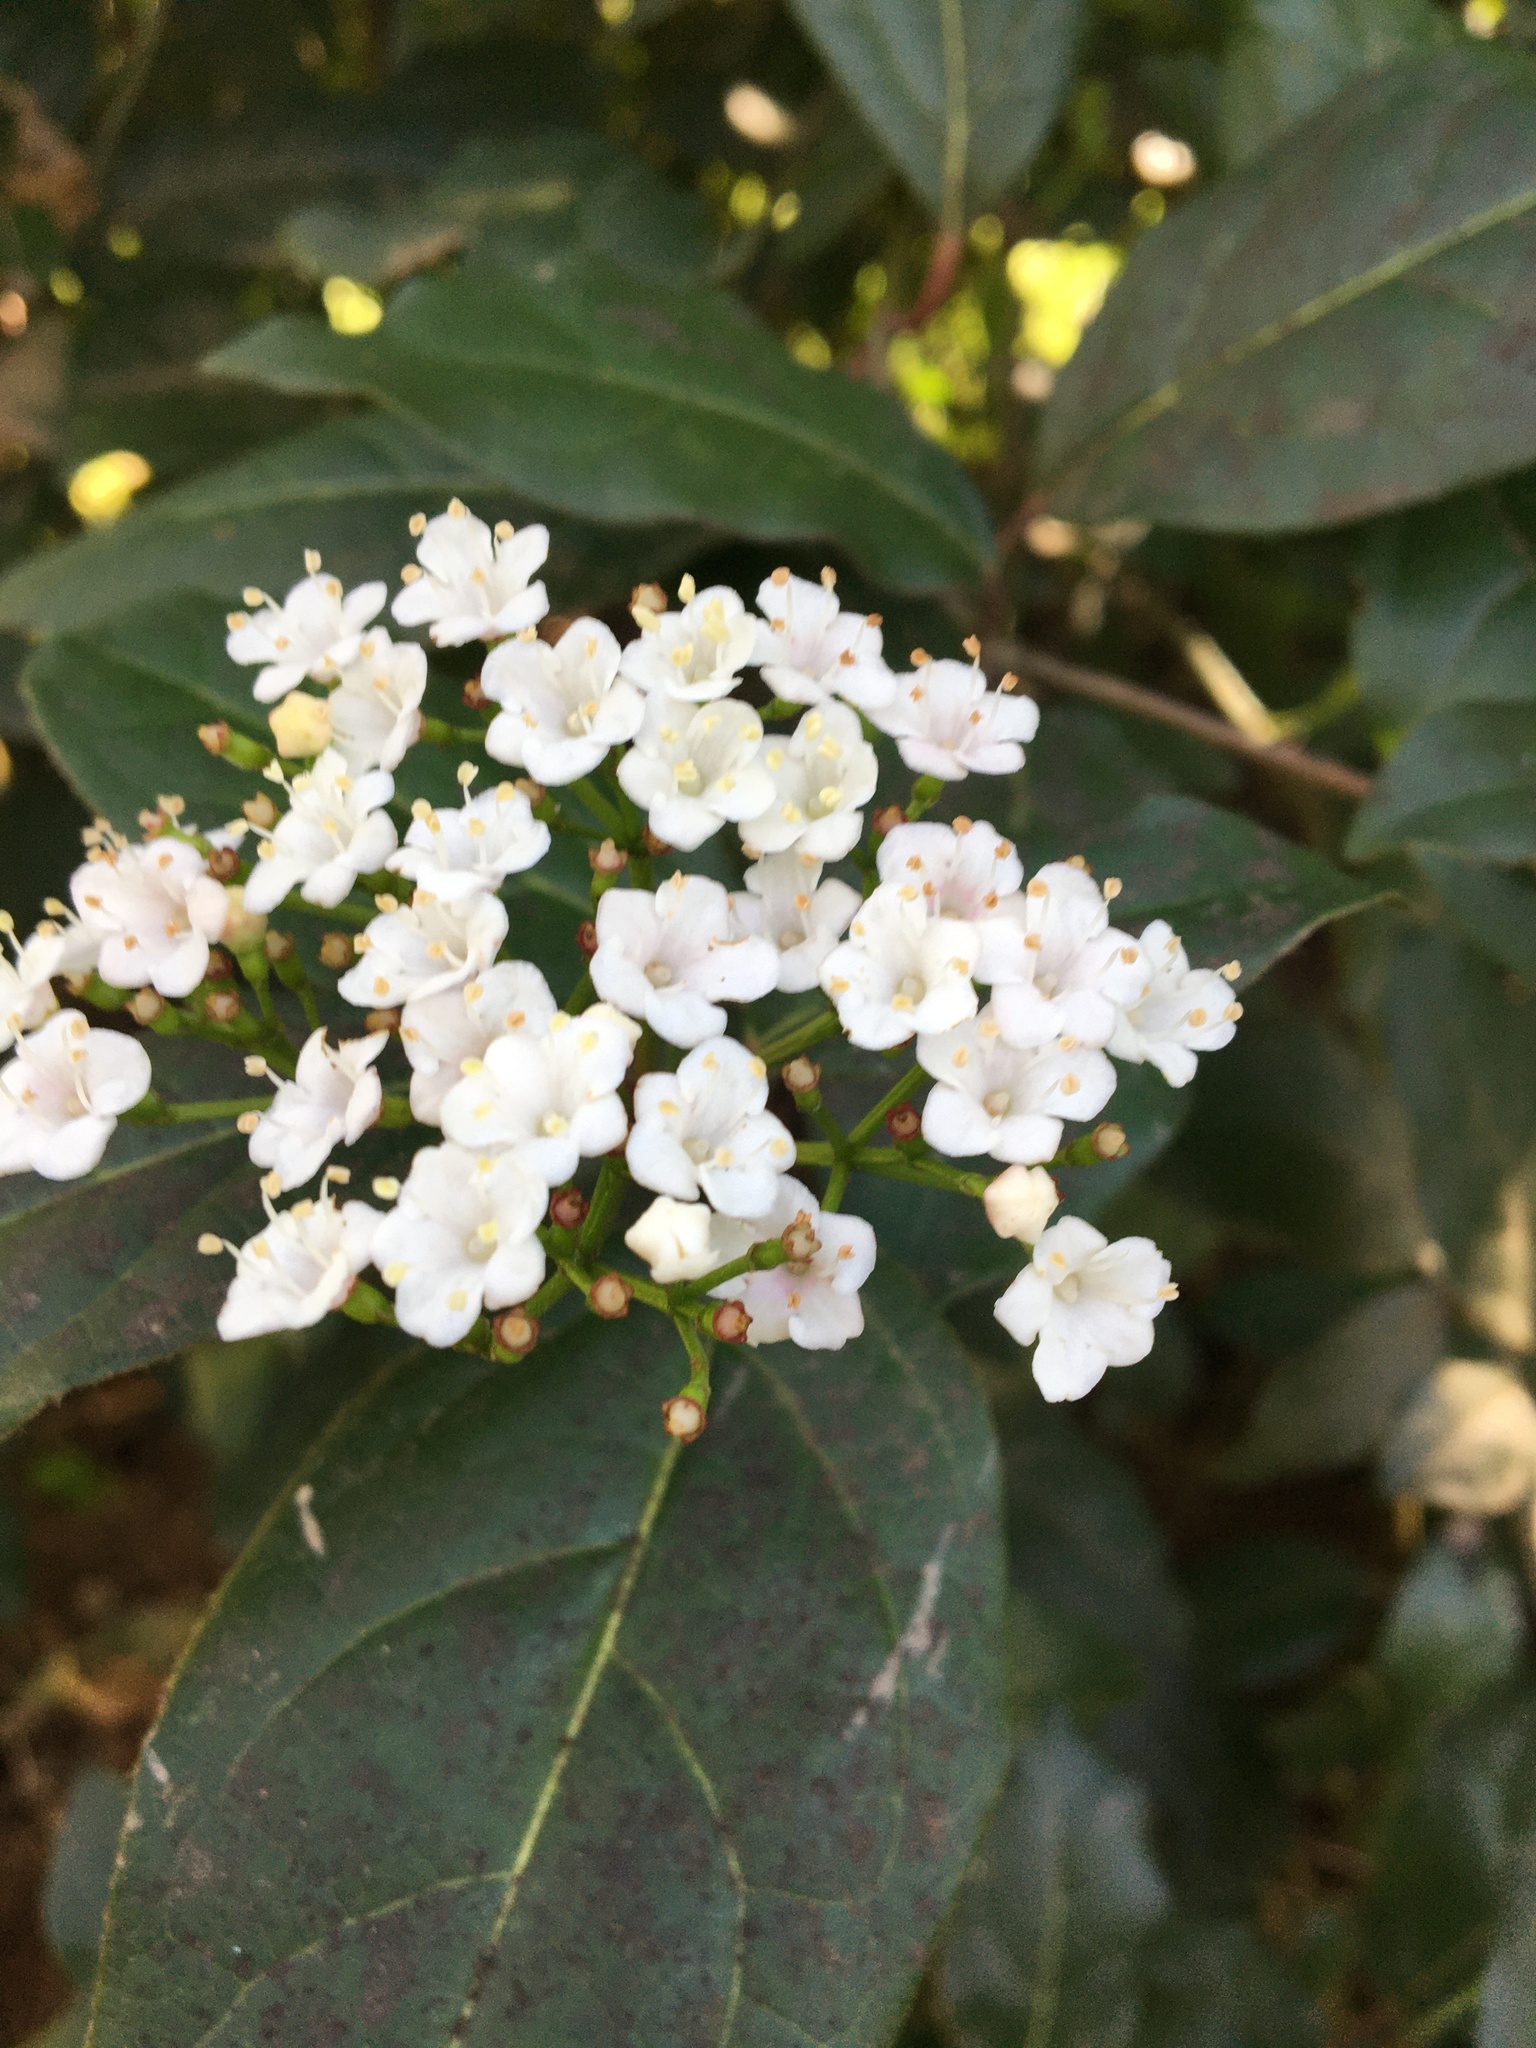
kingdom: Plantae
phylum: Tracheophyta
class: Magnoliopsida
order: Dipsacales
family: Viburnaceae
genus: Viburnum
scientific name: Viburnum tinus
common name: Laurustinus
